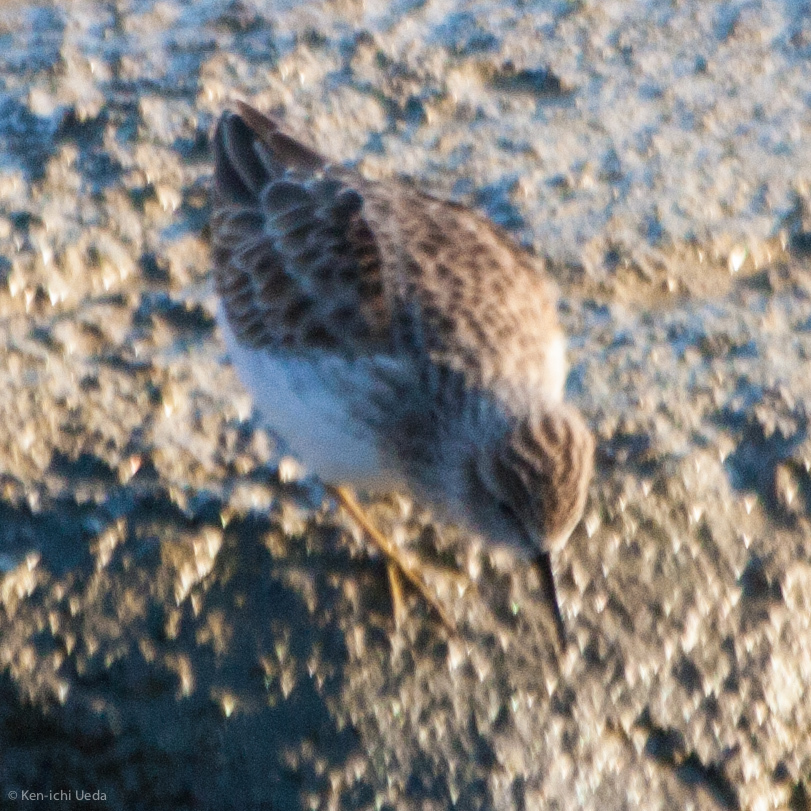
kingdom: Animalia
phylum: Chordata
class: Aves
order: Charadriiformes
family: Scolopacidae
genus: Calidris
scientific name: Calidris minutilla
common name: Least sandpiper
